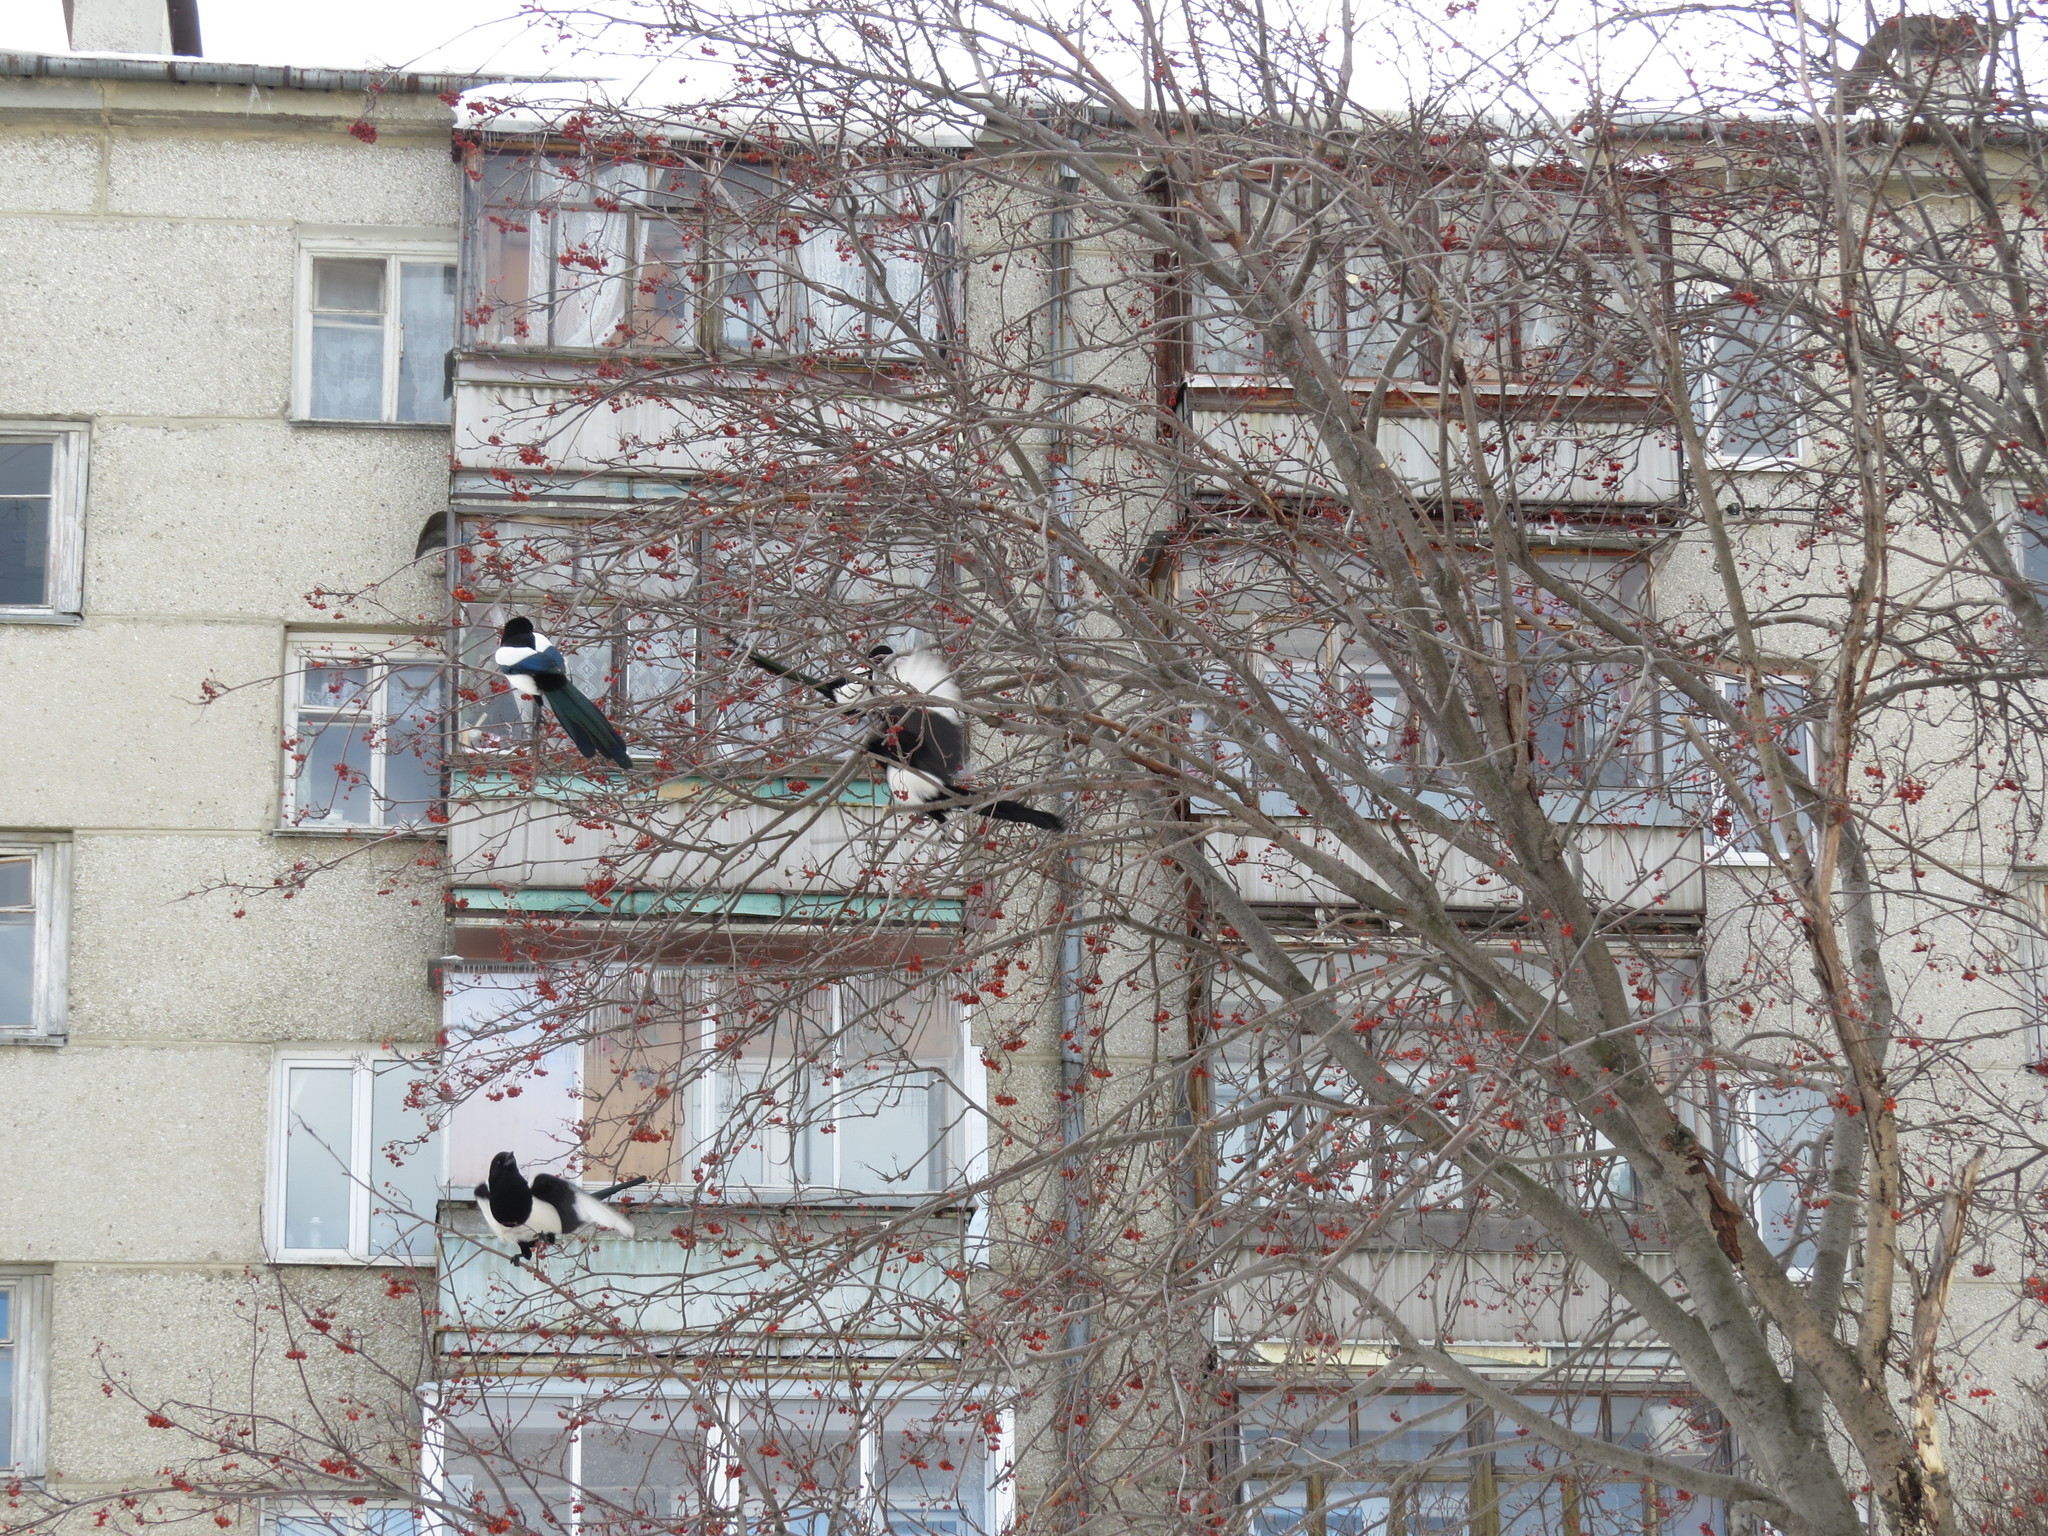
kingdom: Animalia
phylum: Chordata
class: Aves
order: Passeriformes
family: Corvidae
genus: Pica
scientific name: Pica pica
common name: Eurasian magpie
